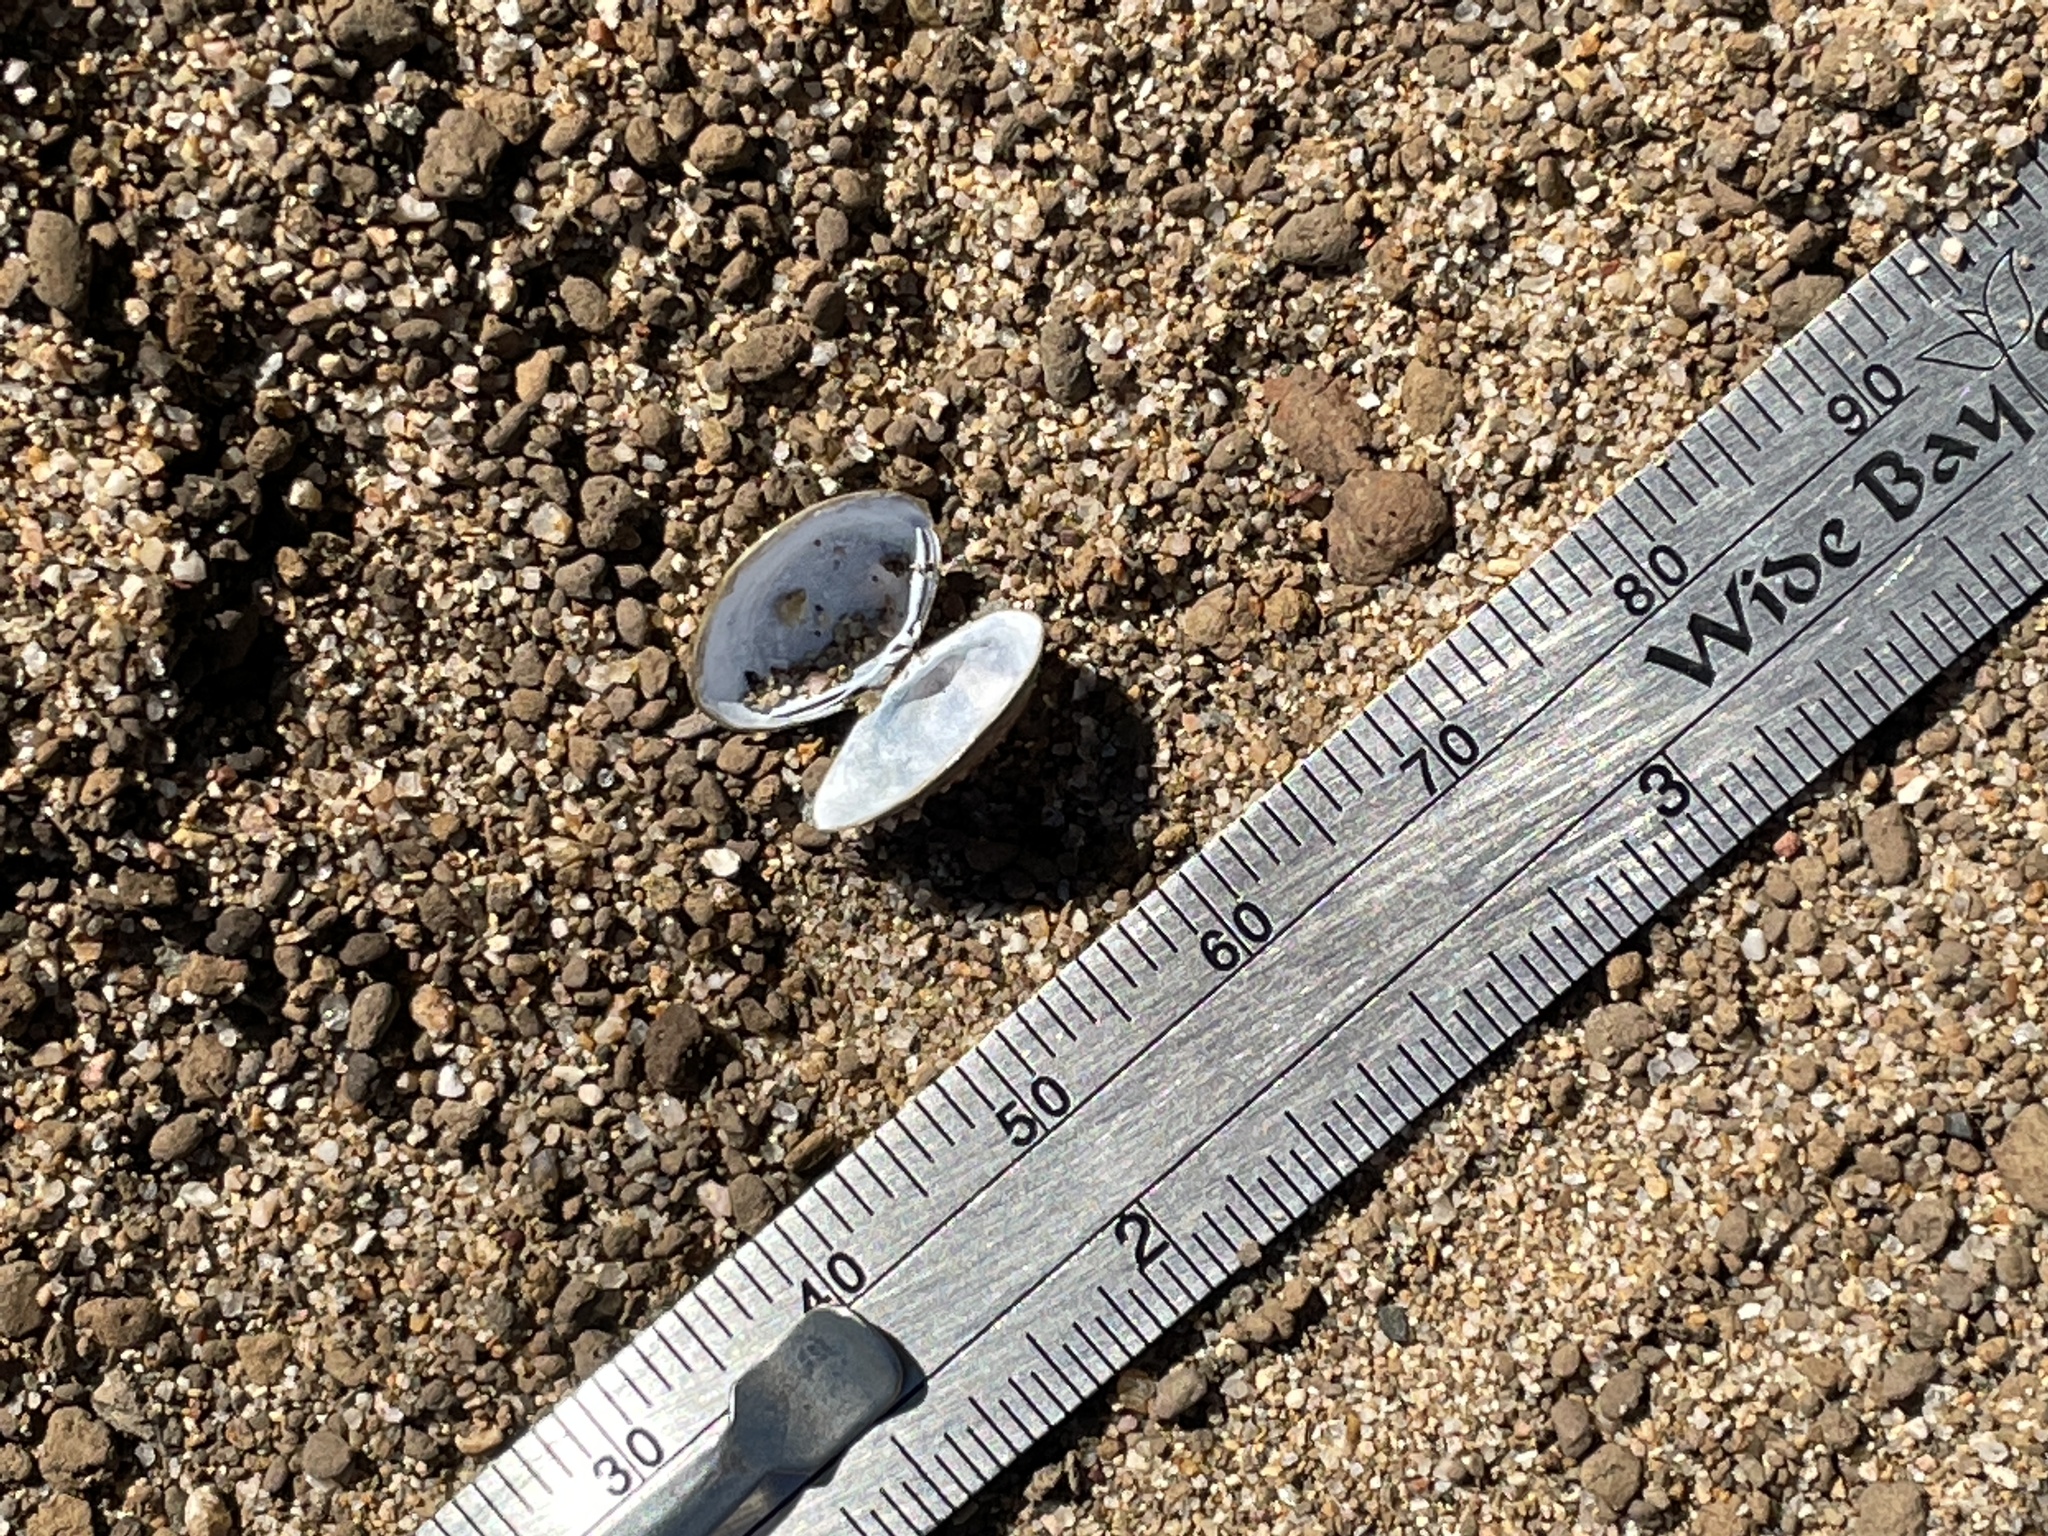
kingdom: Animalia
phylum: Mollusca
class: Bivalvia
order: Venerida
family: Cyrenidae
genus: Corbicula
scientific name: Corbicula australis
